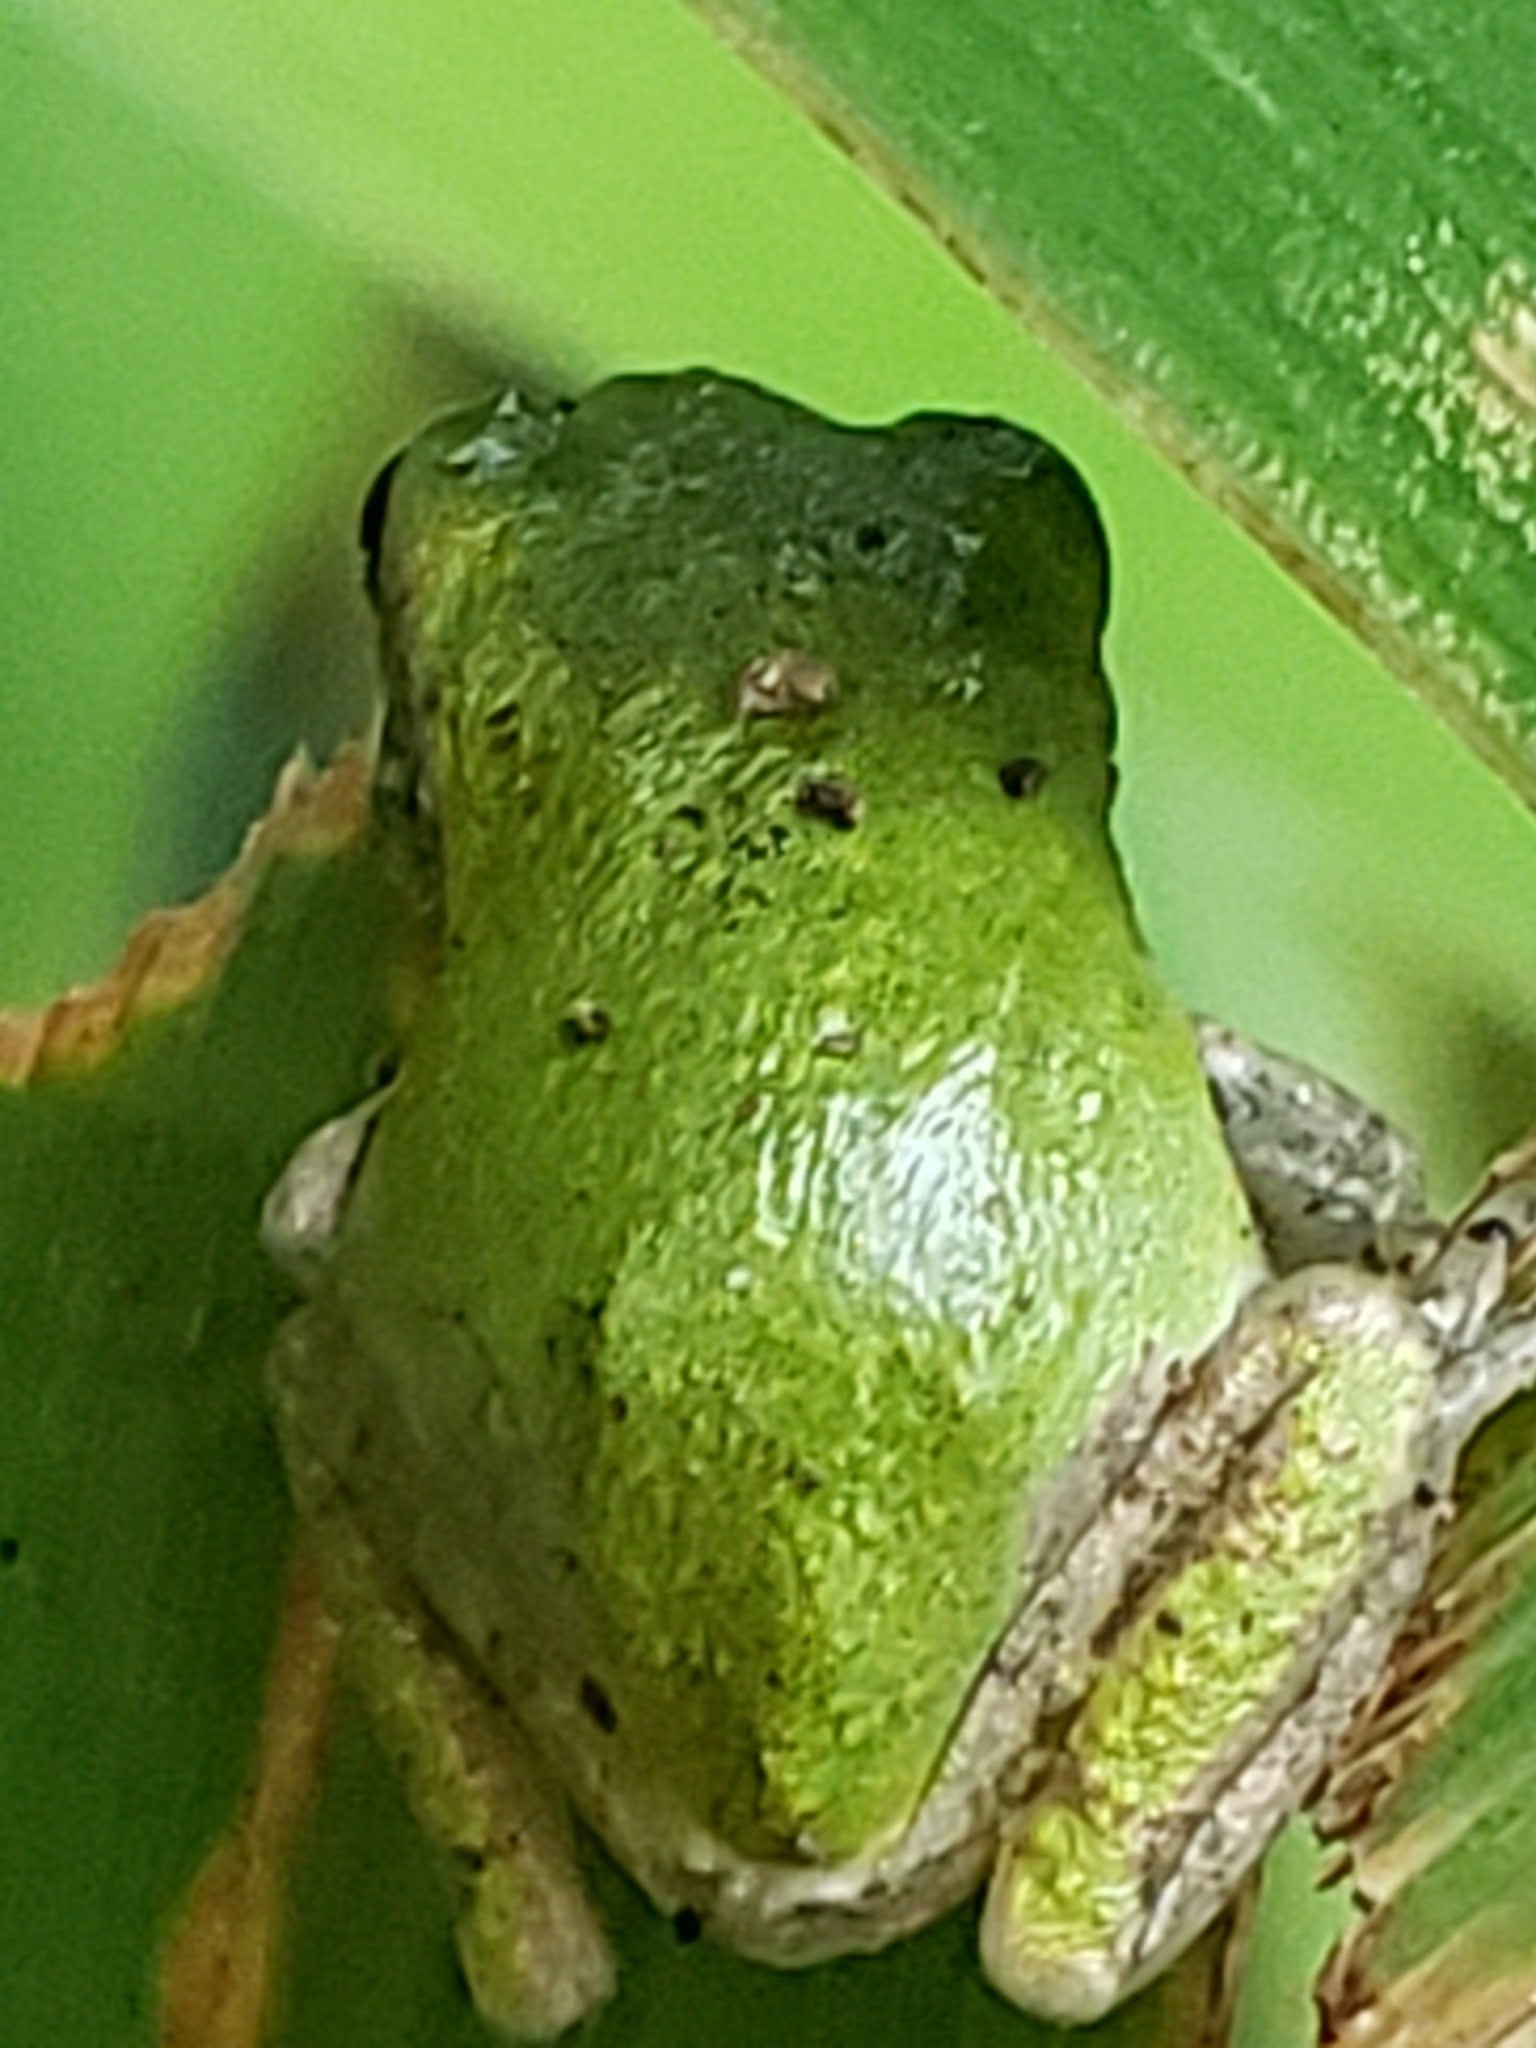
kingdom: Animalia
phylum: Chordata
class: Amphibia
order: Anura
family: Hylidae
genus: Hyla
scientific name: Hyla
